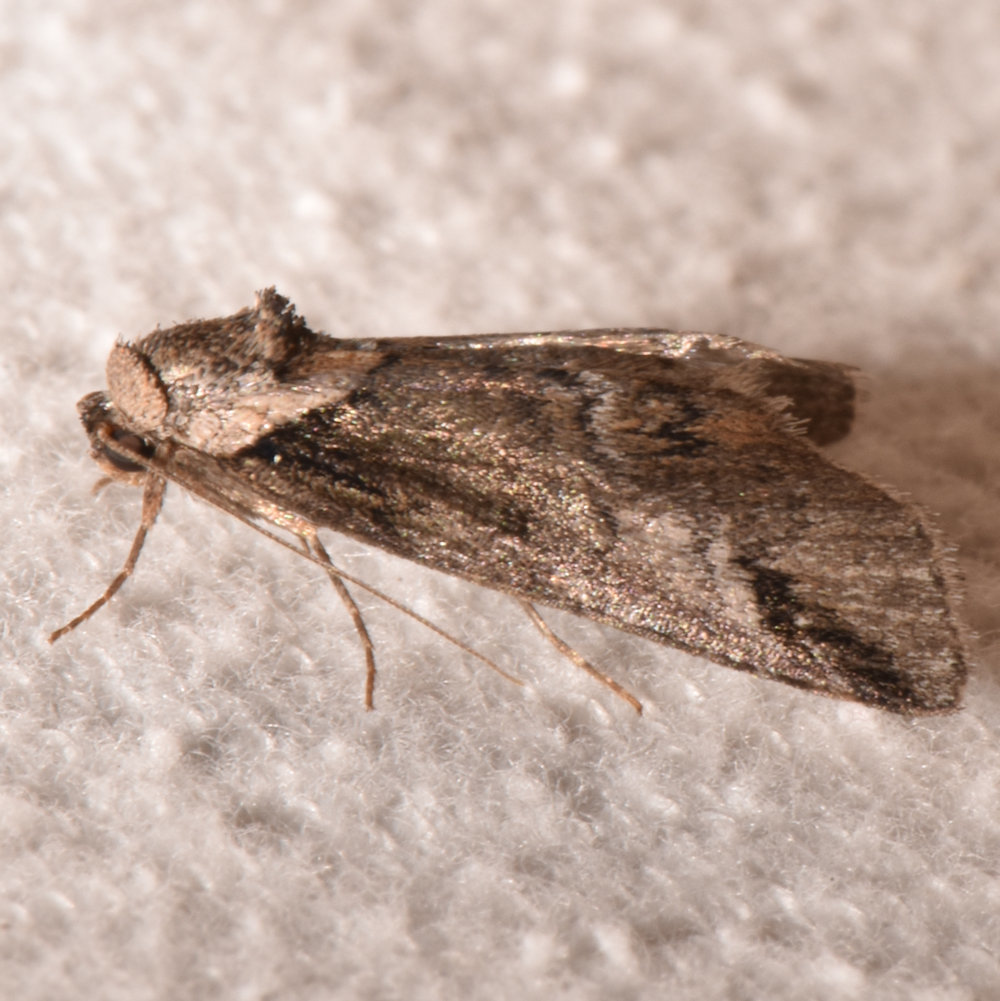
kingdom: Animalia
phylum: Arthropoda
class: Insecta
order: Lepidoptera
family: Nolidae
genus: Baileya
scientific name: Baileya australis
